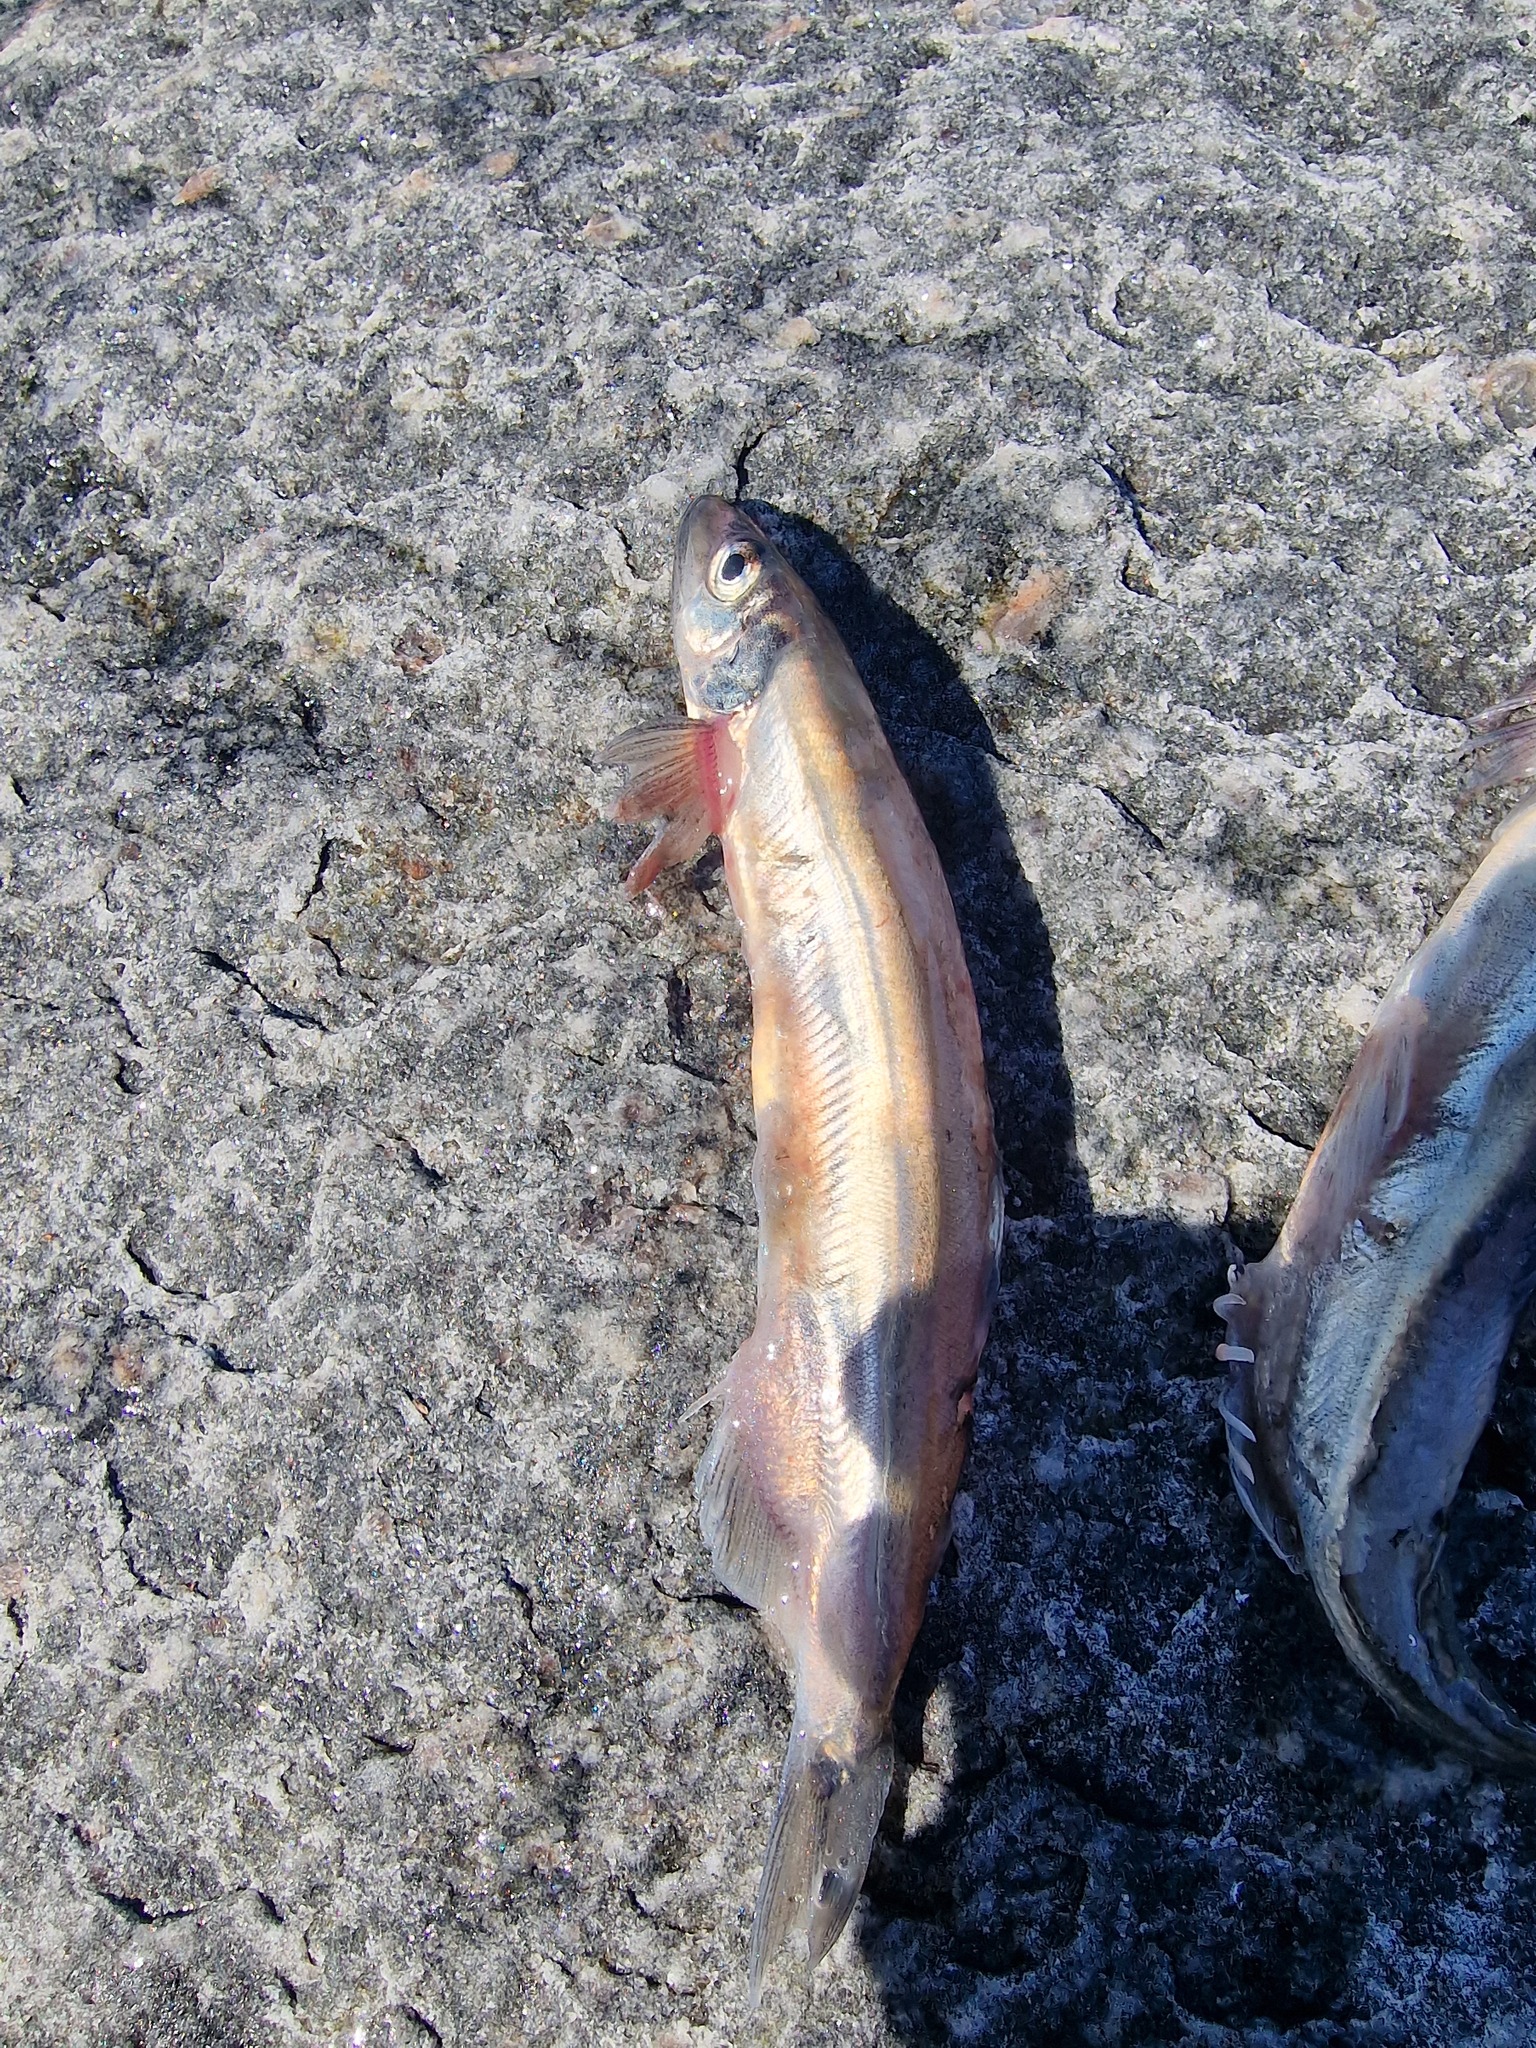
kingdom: Animalia
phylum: Chordata
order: Osmeriformes
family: Osmeridae
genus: Mallotus
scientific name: Mallotus villosus
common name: Capelin
